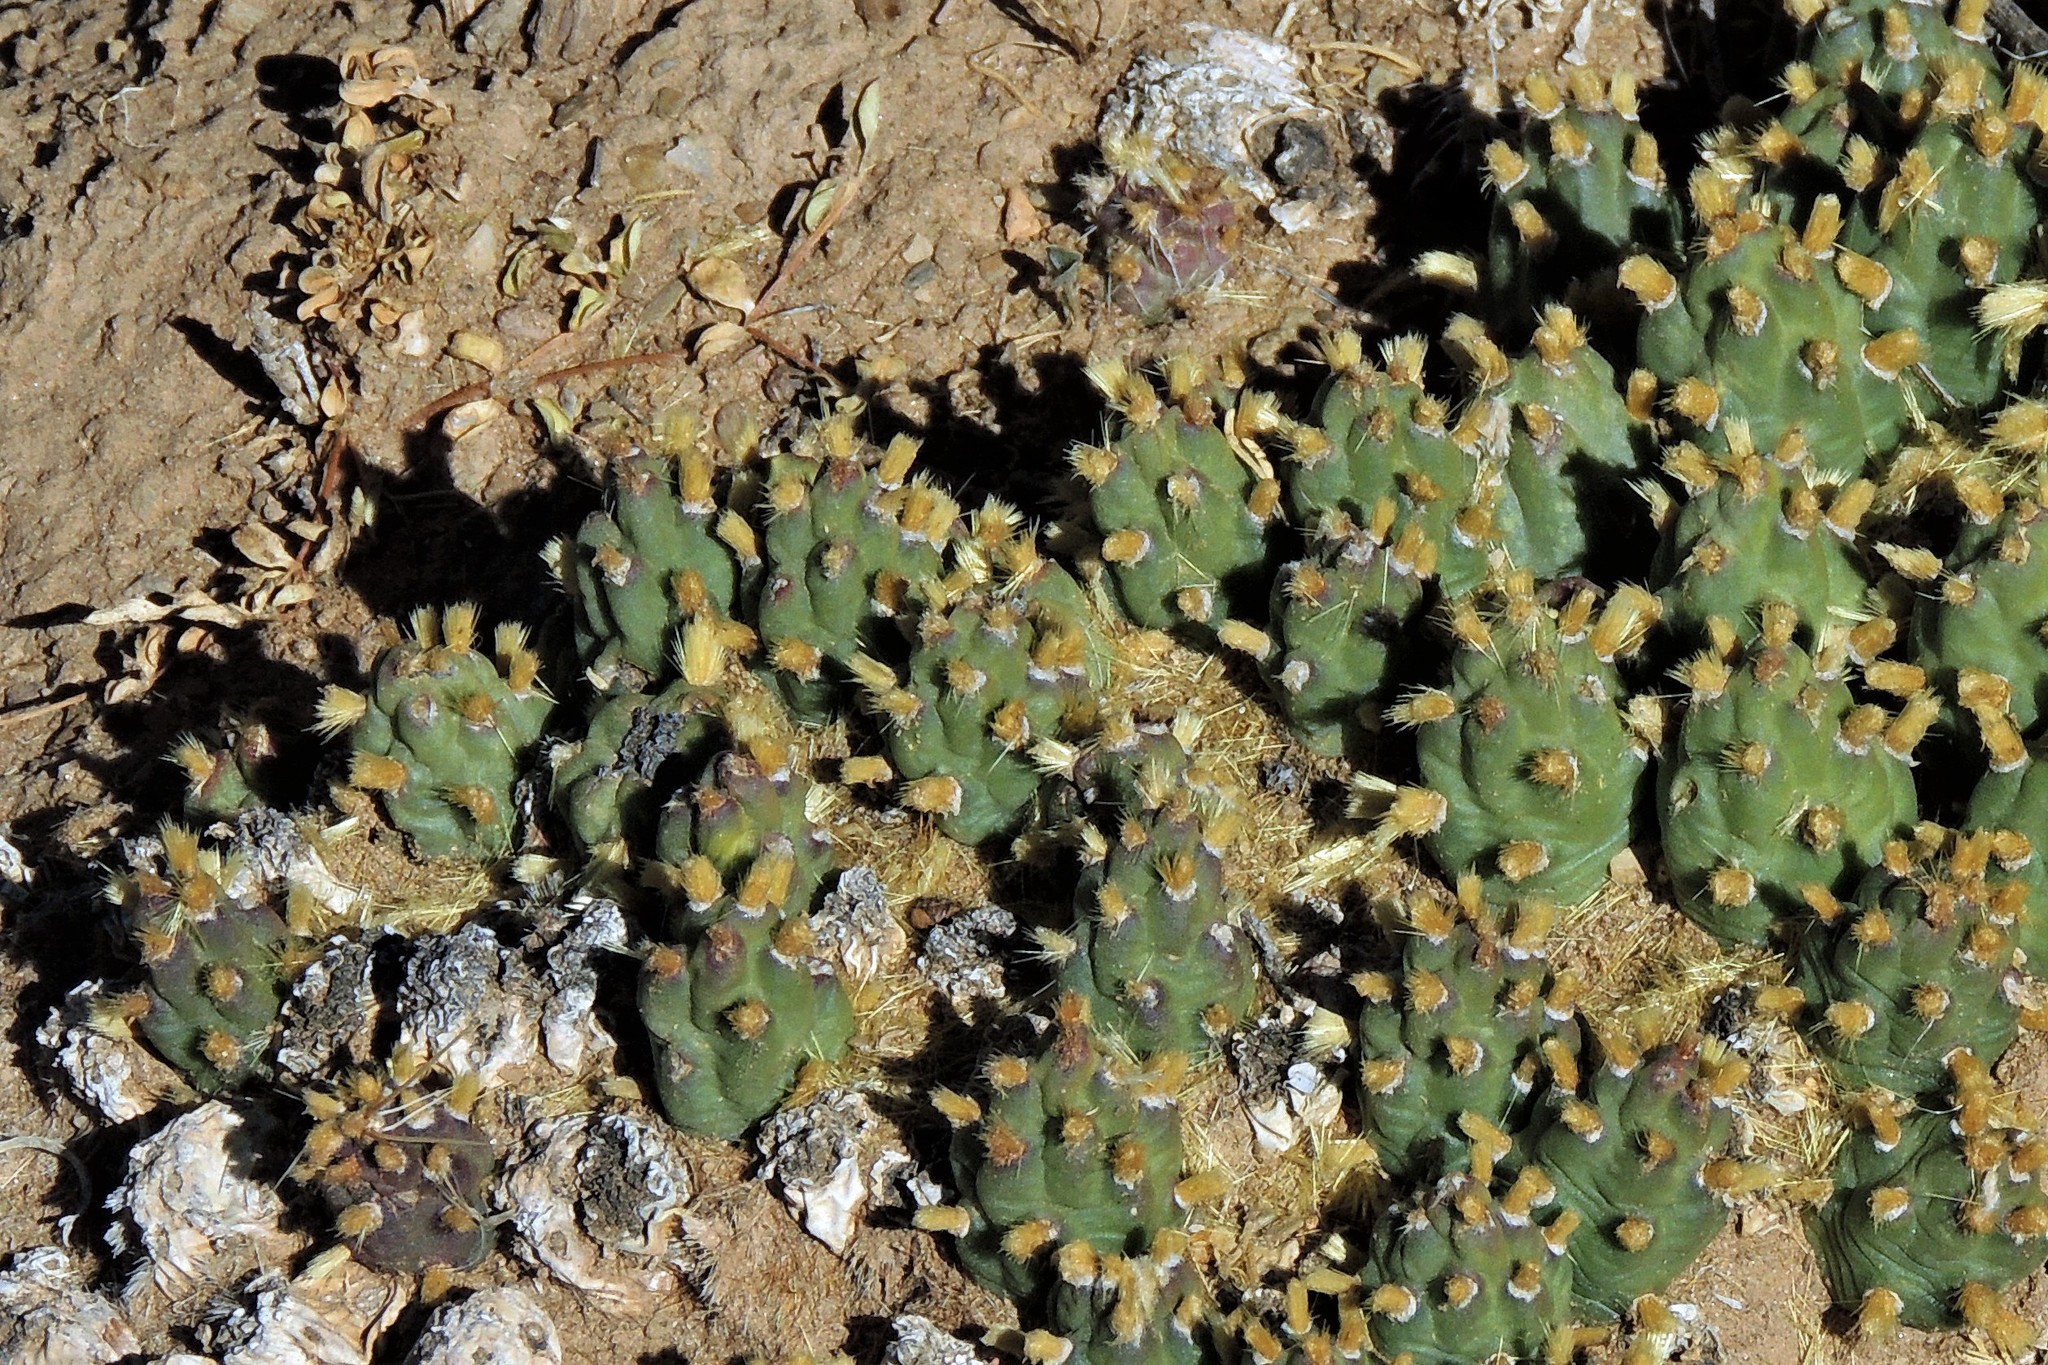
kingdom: Plantae
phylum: Tracheophyta
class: Magnoliopsida
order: Caryophyllales
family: Cactaceae
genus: Cumulopuntia
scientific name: Cumulopuntia boliviana
